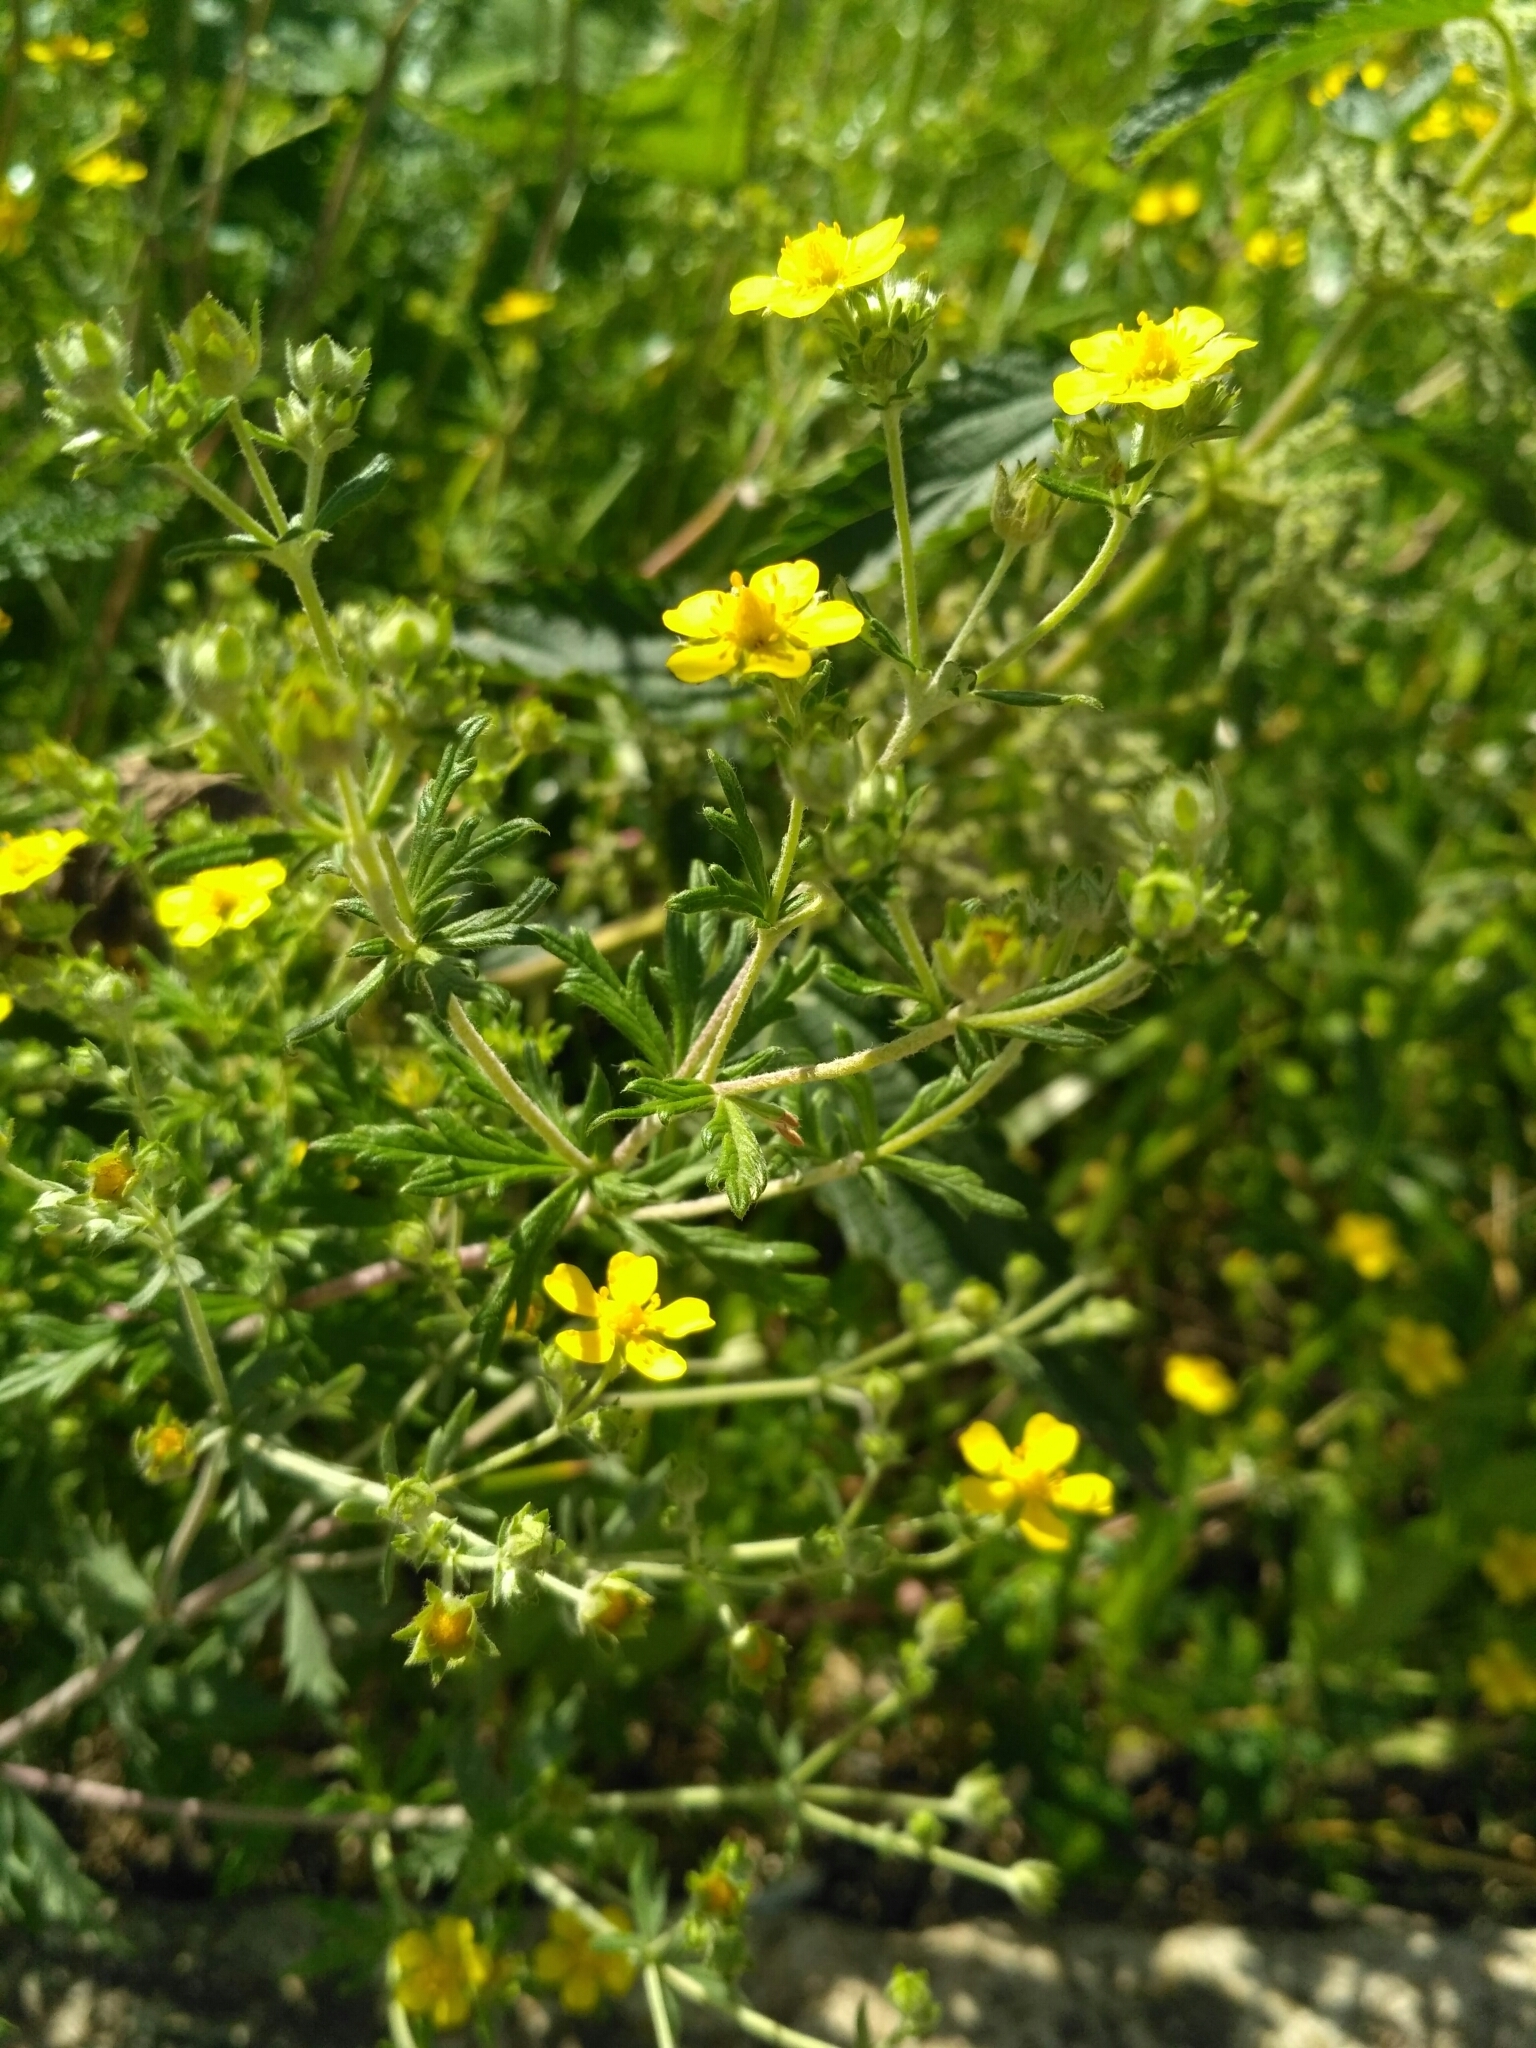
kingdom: Plantae
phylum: Tracheophyta
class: Magnoliopsida
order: Rosales
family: Rosaceae
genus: Potentilla
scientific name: Potentilla argentea
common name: Hoary cinquefoil
